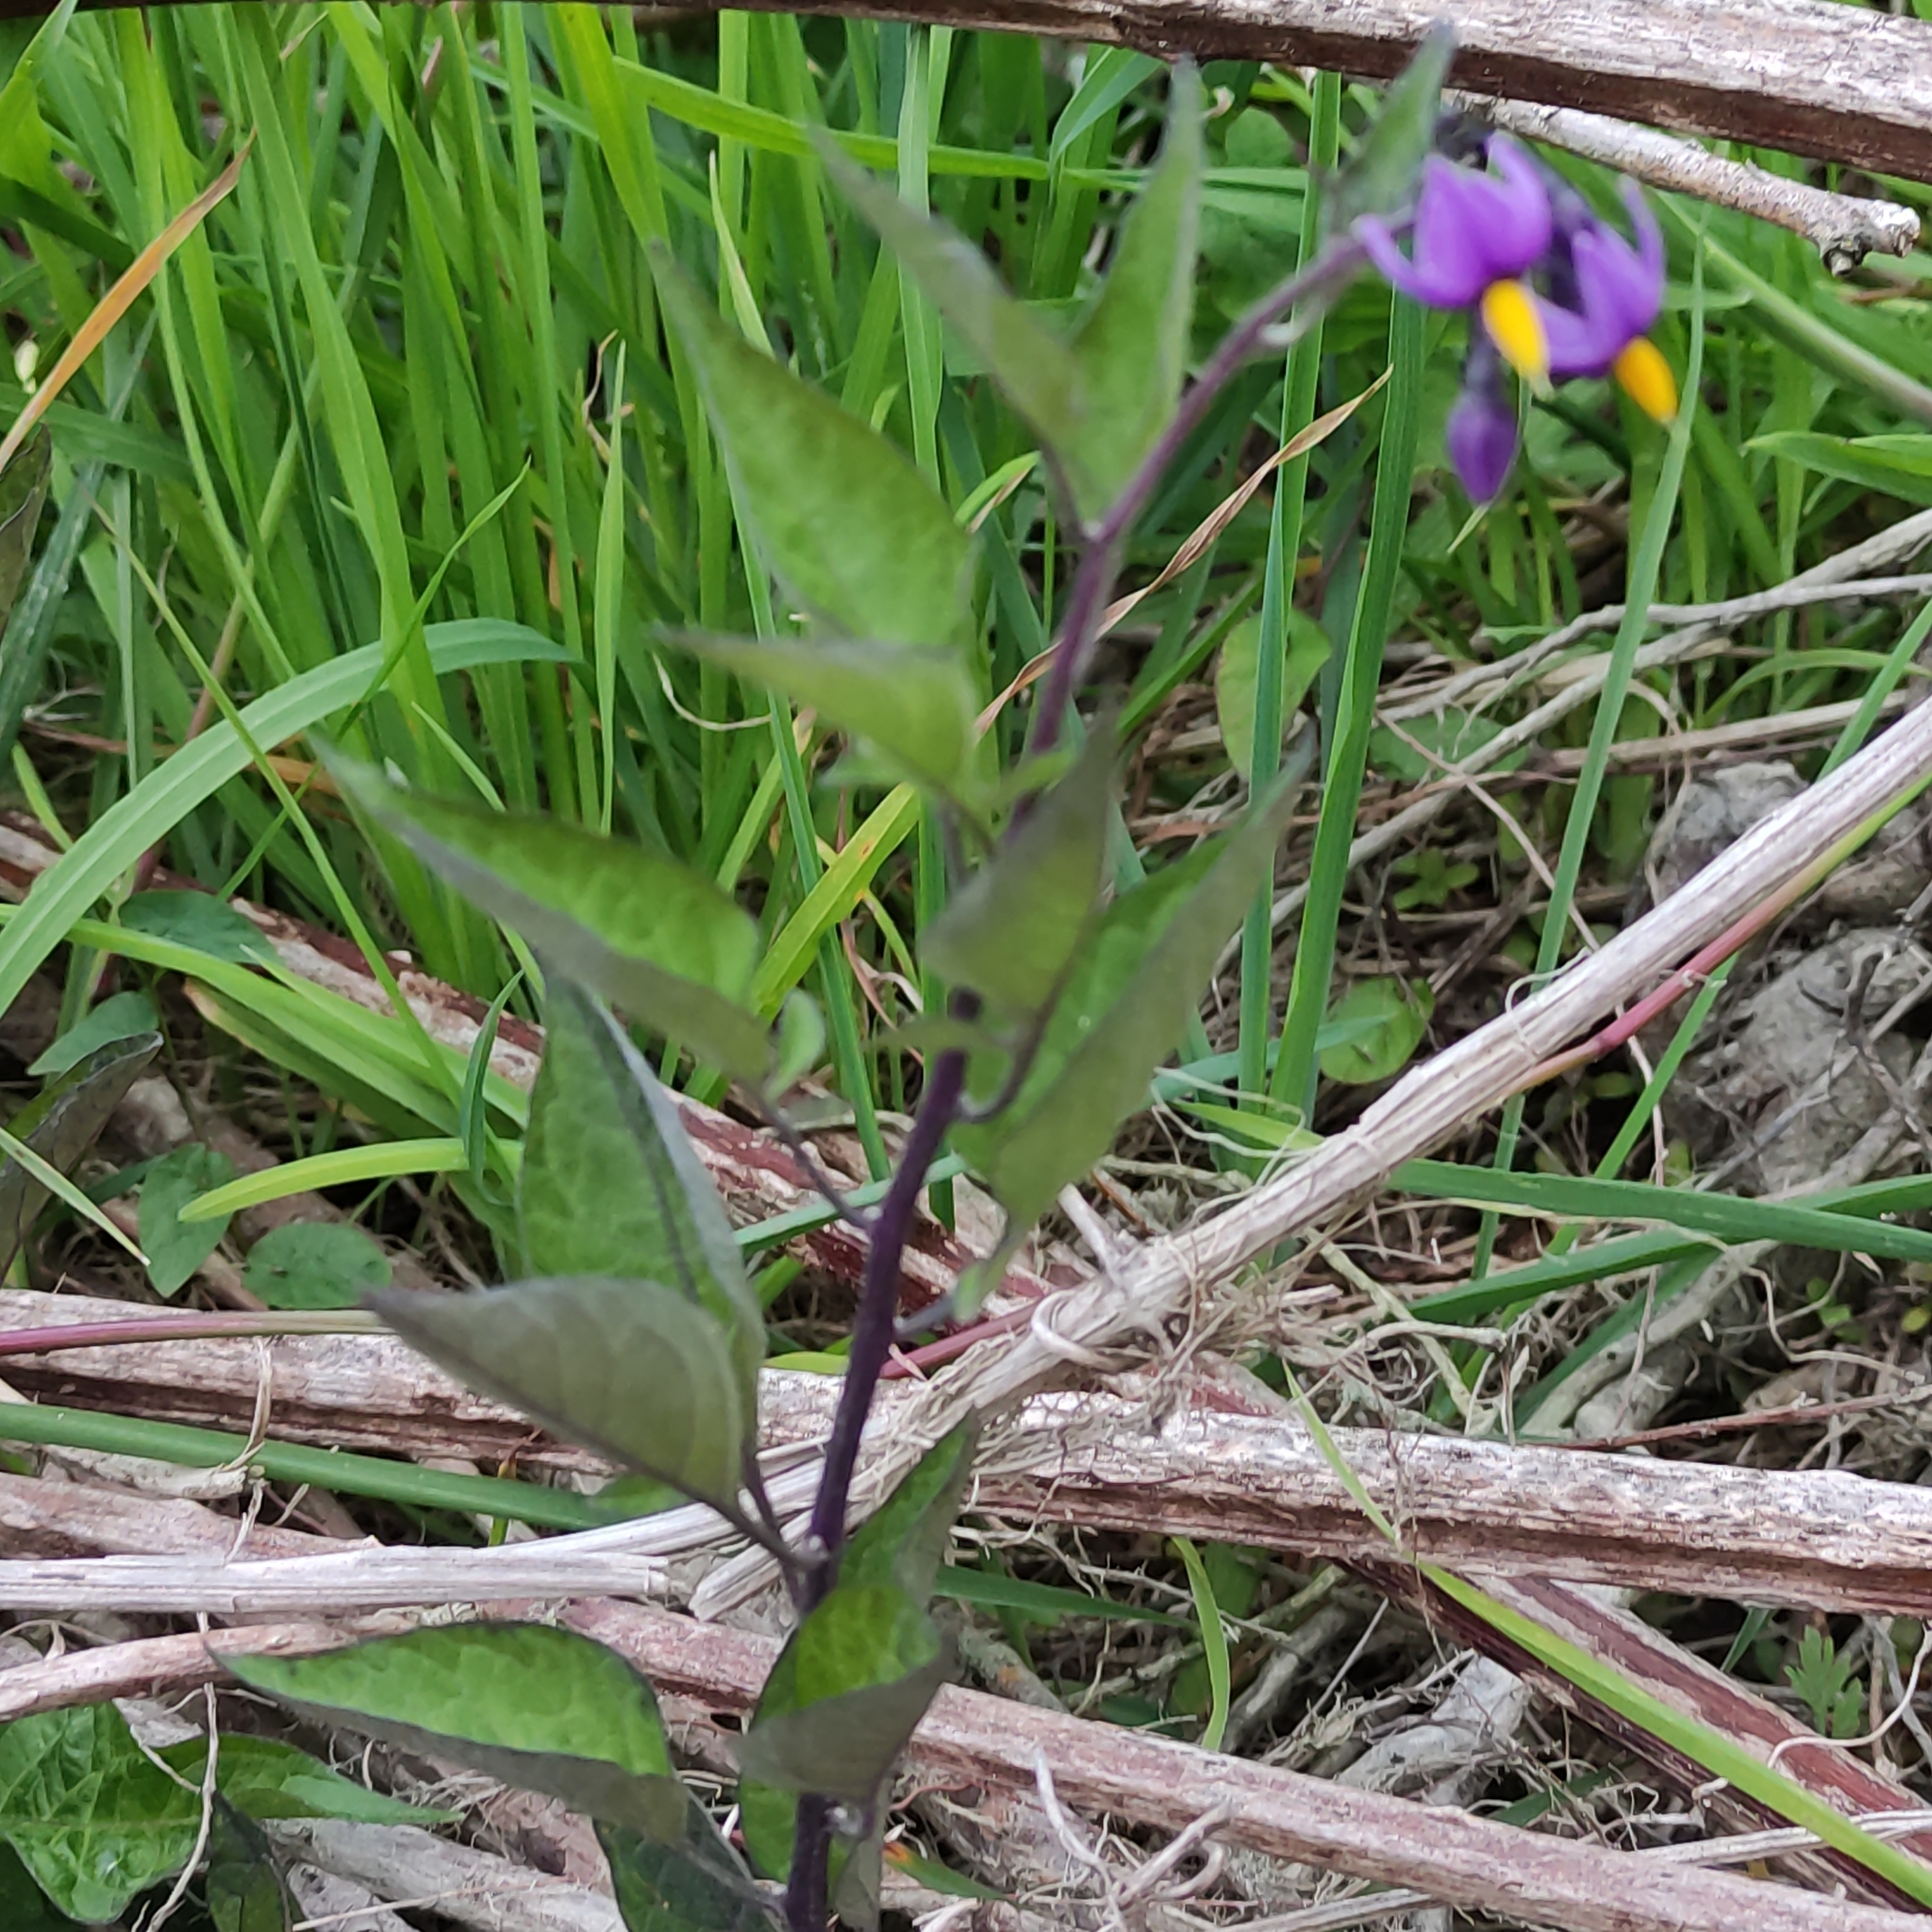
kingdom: Plantae
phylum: Tracheophyta
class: Magnoliopsida
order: Solanales
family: Solanaceae
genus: Solanum
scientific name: Solanum dulcamara
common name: Climbing nightshade
